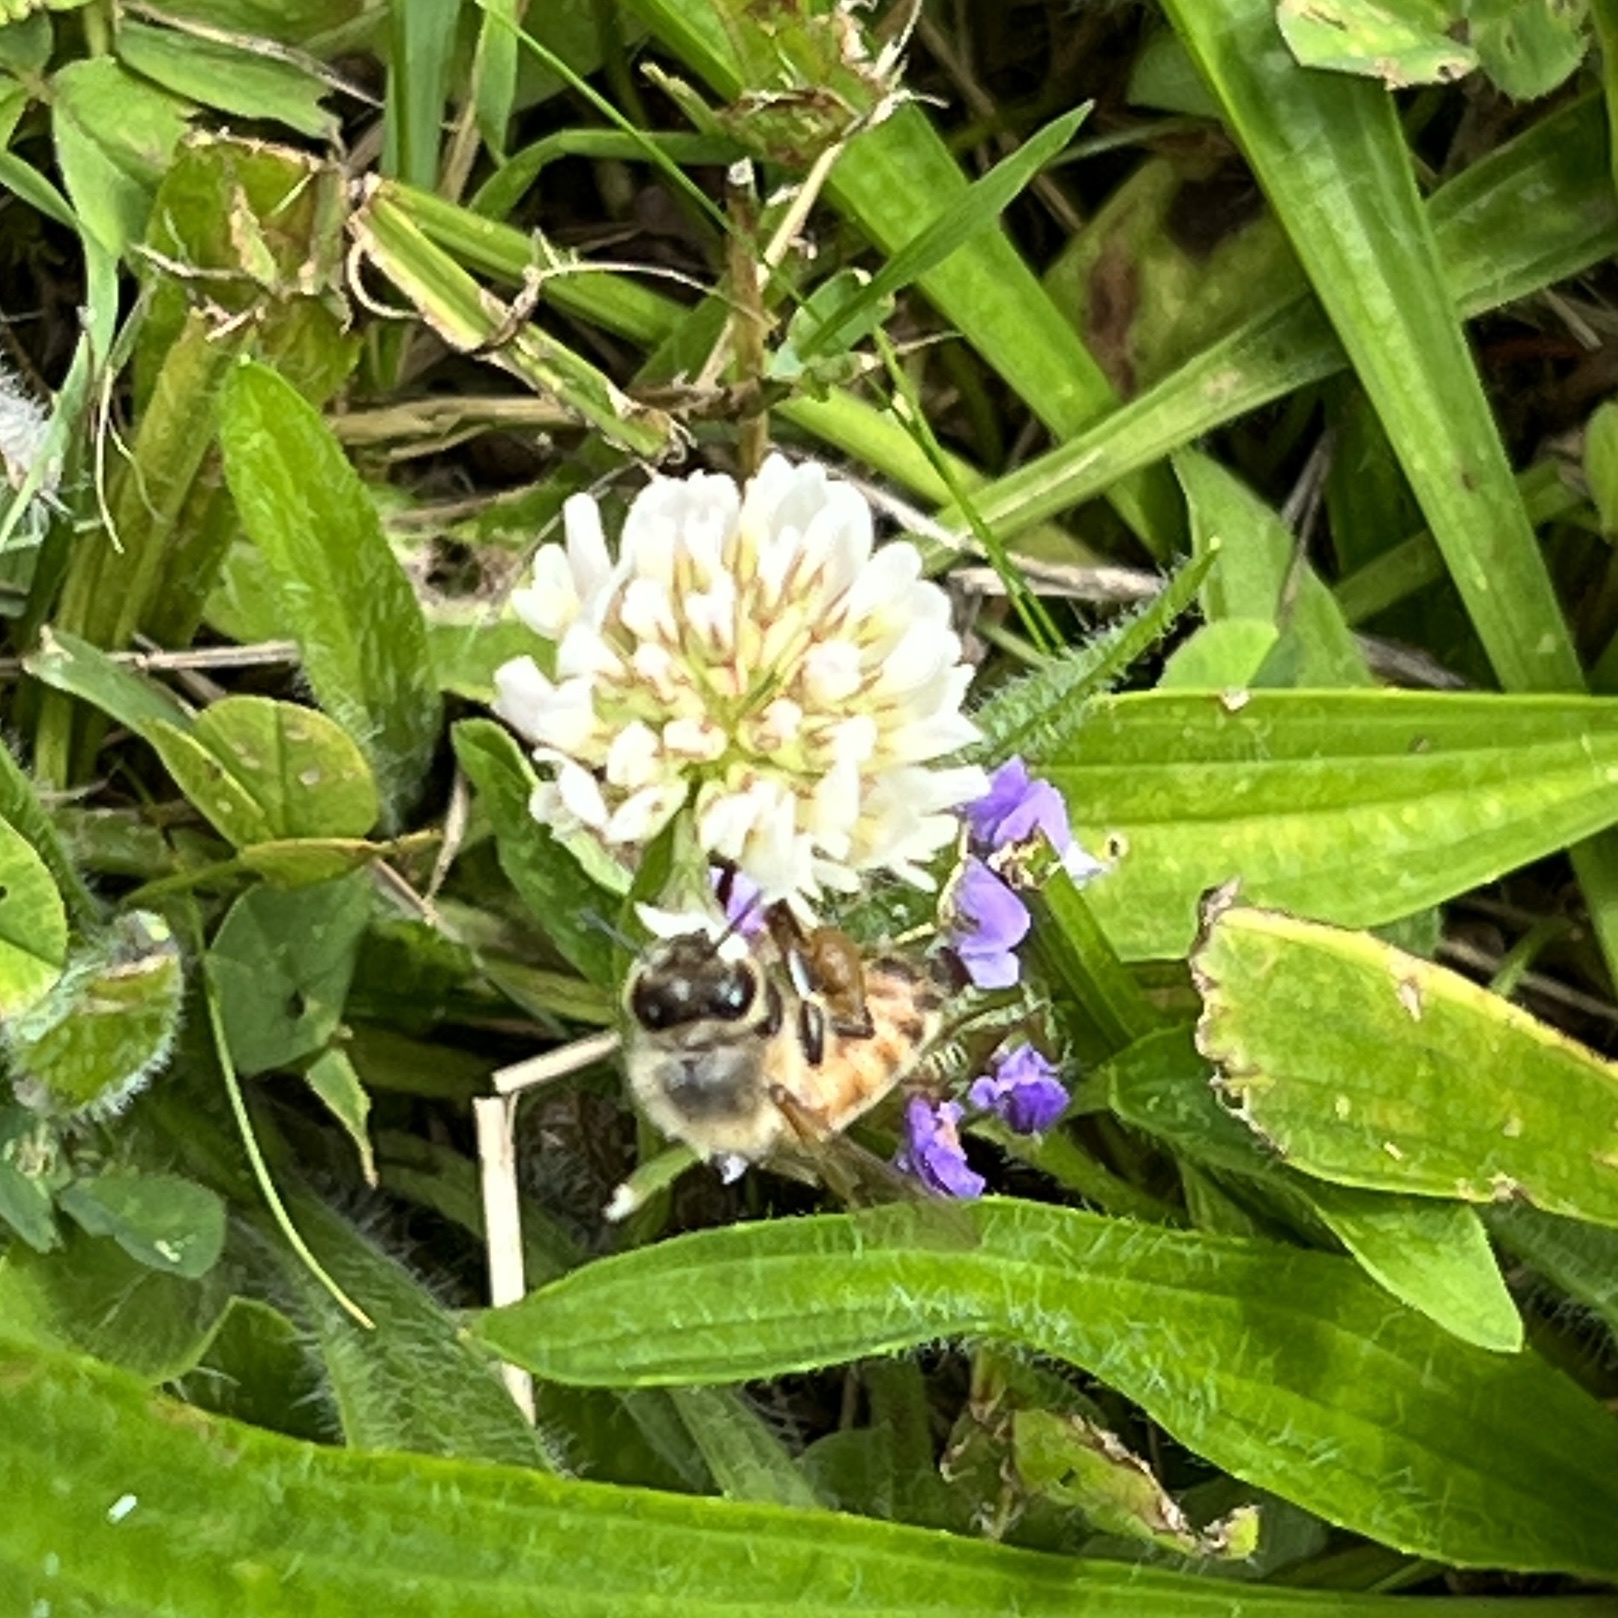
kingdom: Animalia
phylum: Arthropoda
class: Insecta
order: Hymenoptera
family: Apidae
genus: Apis
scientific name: Apis mellifera
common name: Honey bee
